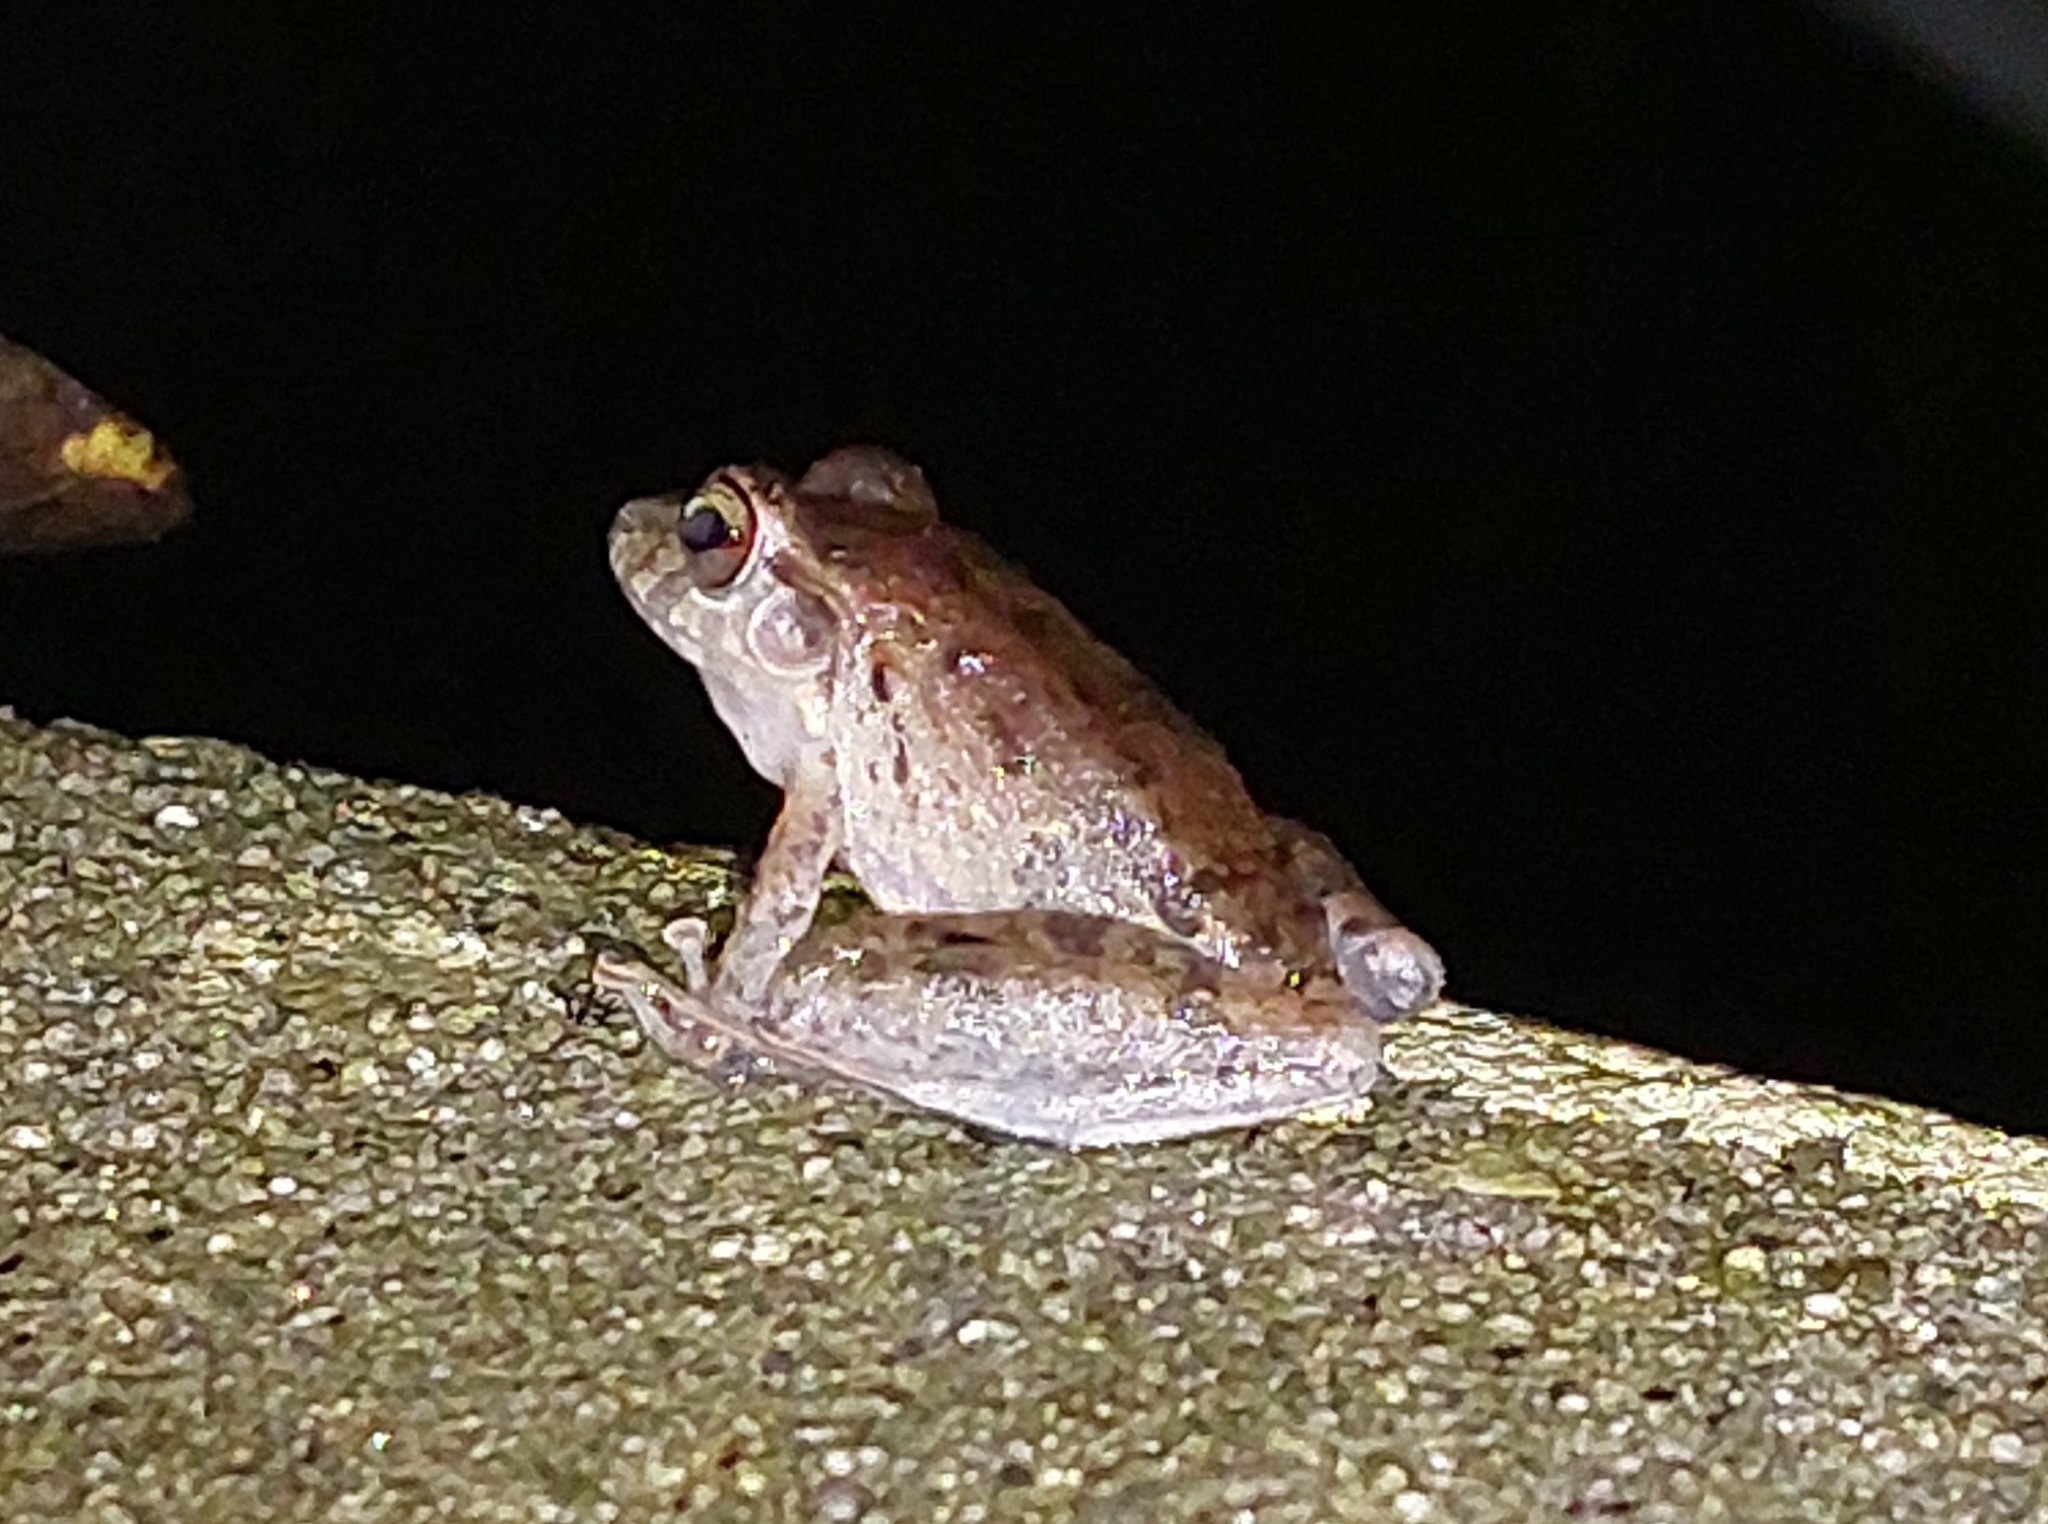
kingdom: Animalia
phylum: Chordata
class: Amphibia
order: Anura
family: Craugastoridae
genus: Craugastor
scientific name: Craugastor fitzingeri
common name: Fitzinger's robber frog
